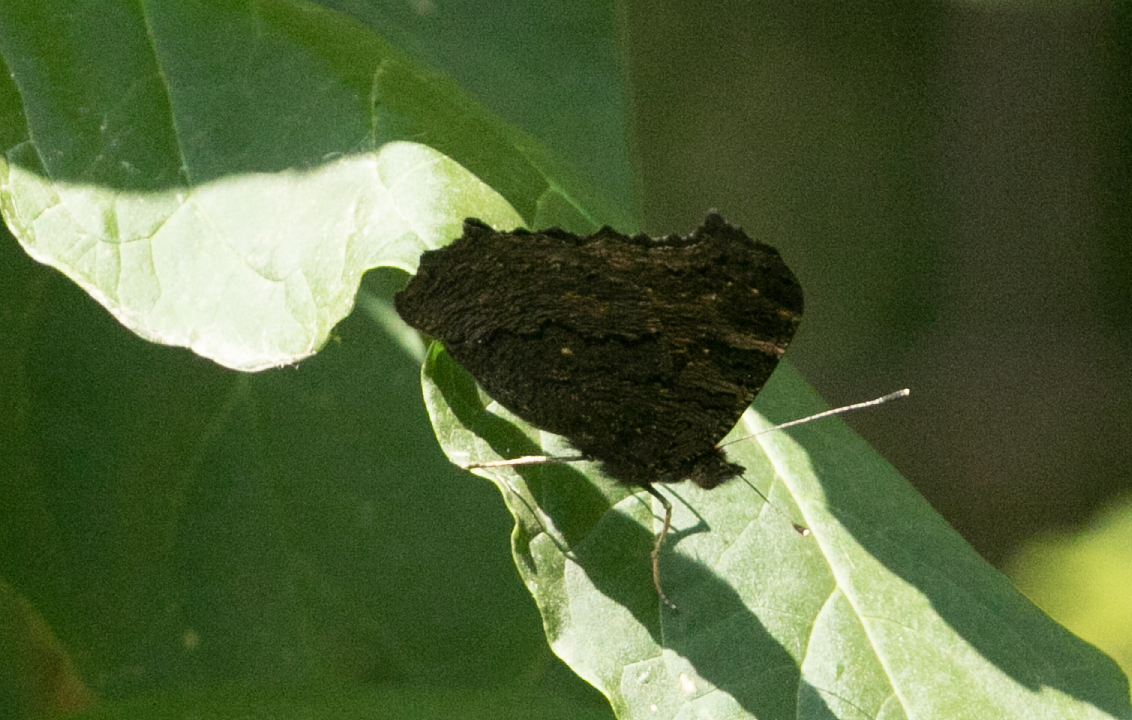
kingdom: Animalia
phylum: Arthropoda
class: Insecta
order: Lepidoptera
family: Nymphalidae
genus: Aglais
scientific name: Aglais io
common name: Peacock
